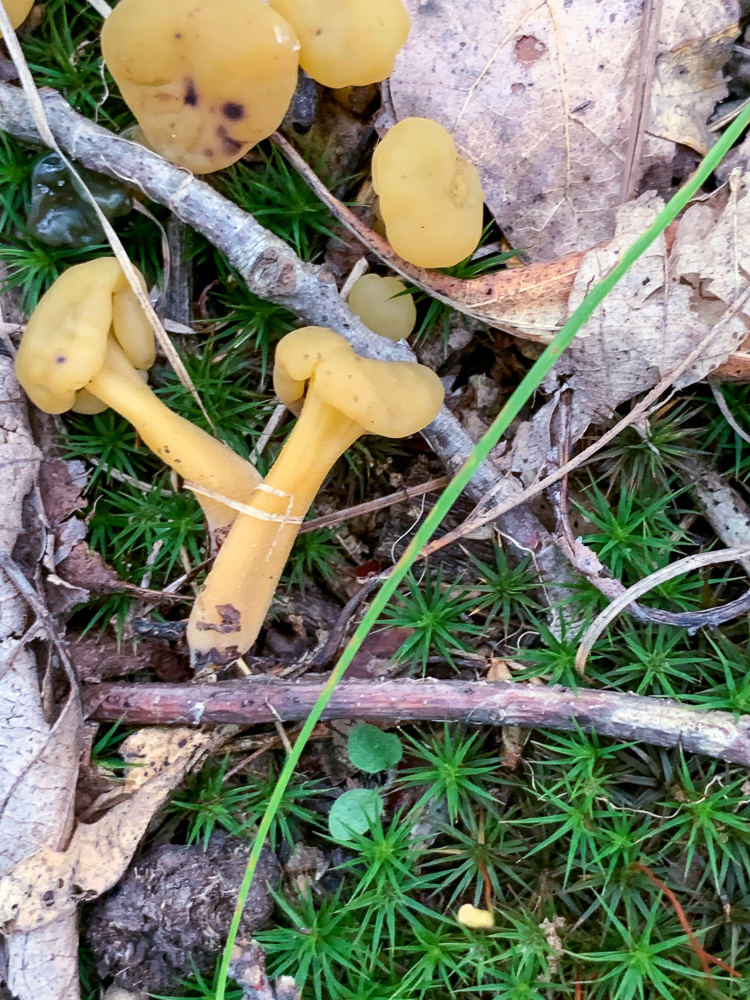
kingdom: Fungi
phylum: Ascomycota
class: Leotiomycetes
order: Leotiales
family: Leotiaceae
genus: Leotia
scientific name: Leotia lubrica
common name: Jellybaby
